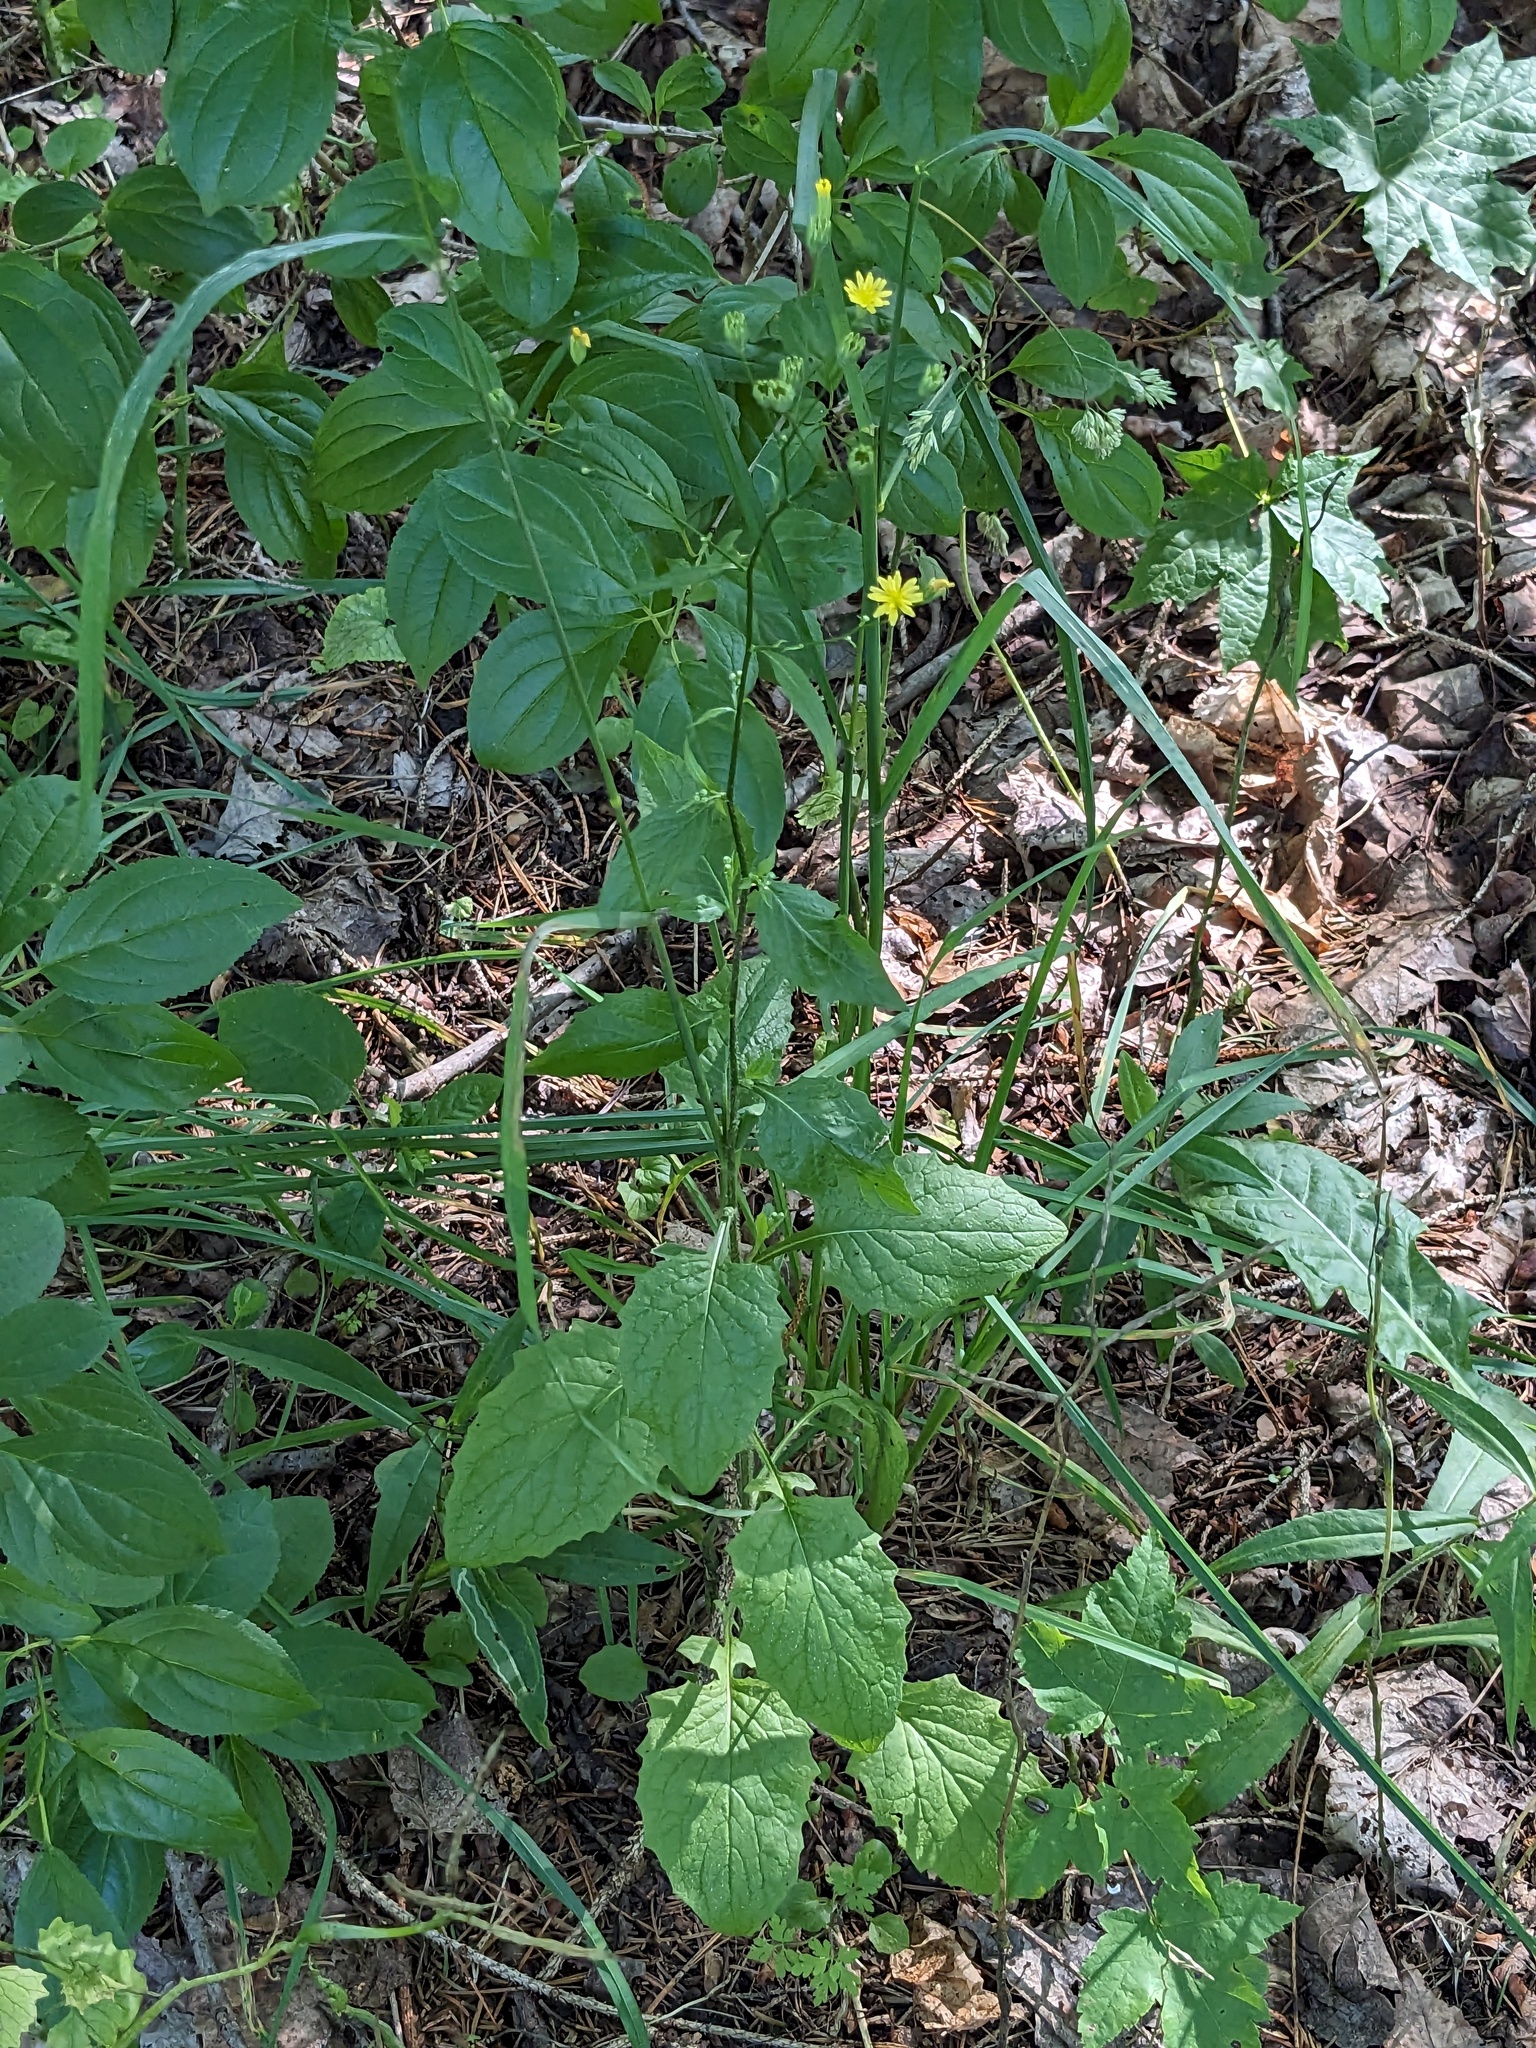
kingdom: Plantae
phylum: Tracheophyta
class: Magnoliopsida
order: Asterales
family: Asteraceae
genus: Lapsana
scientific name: Lapsana communis
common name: Nipplewort
